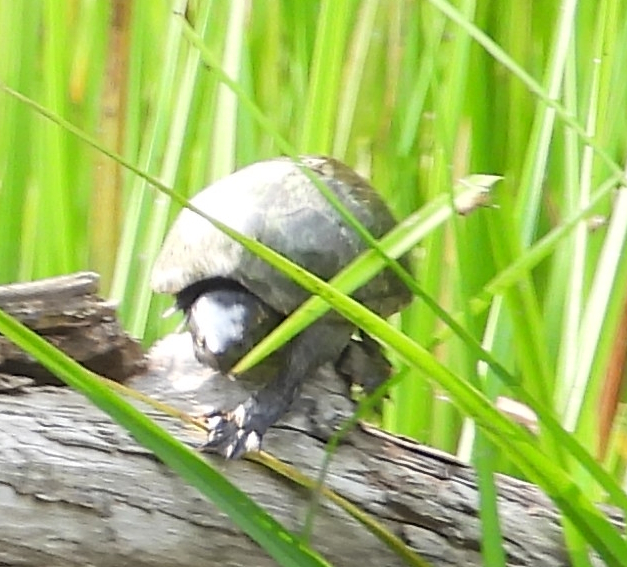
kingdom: Animalia
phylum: Chordata
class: Testudines
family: Kinosternidae
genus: Sternotherus
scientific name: Sternotherus odoratus
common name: Common musk turtle
